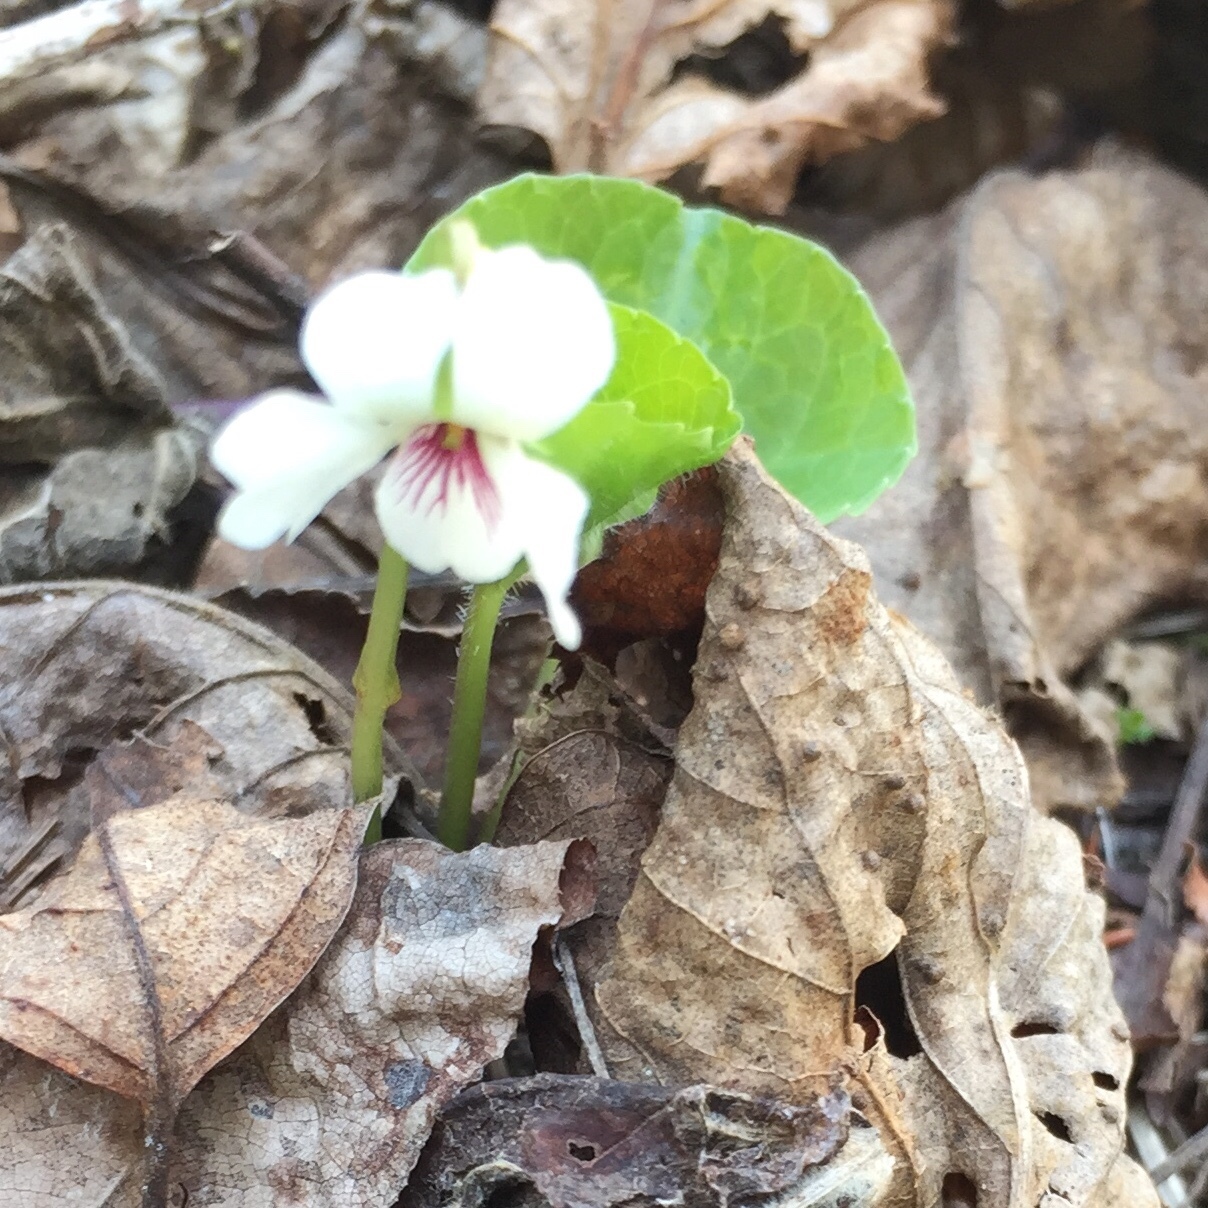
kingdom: Plantae
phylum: Tracheophyta
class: Magnoliopsida
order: Malpighiales
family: Violaceae
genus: Viola
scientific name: Viola renifolia
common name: Kidney-leaf violet
